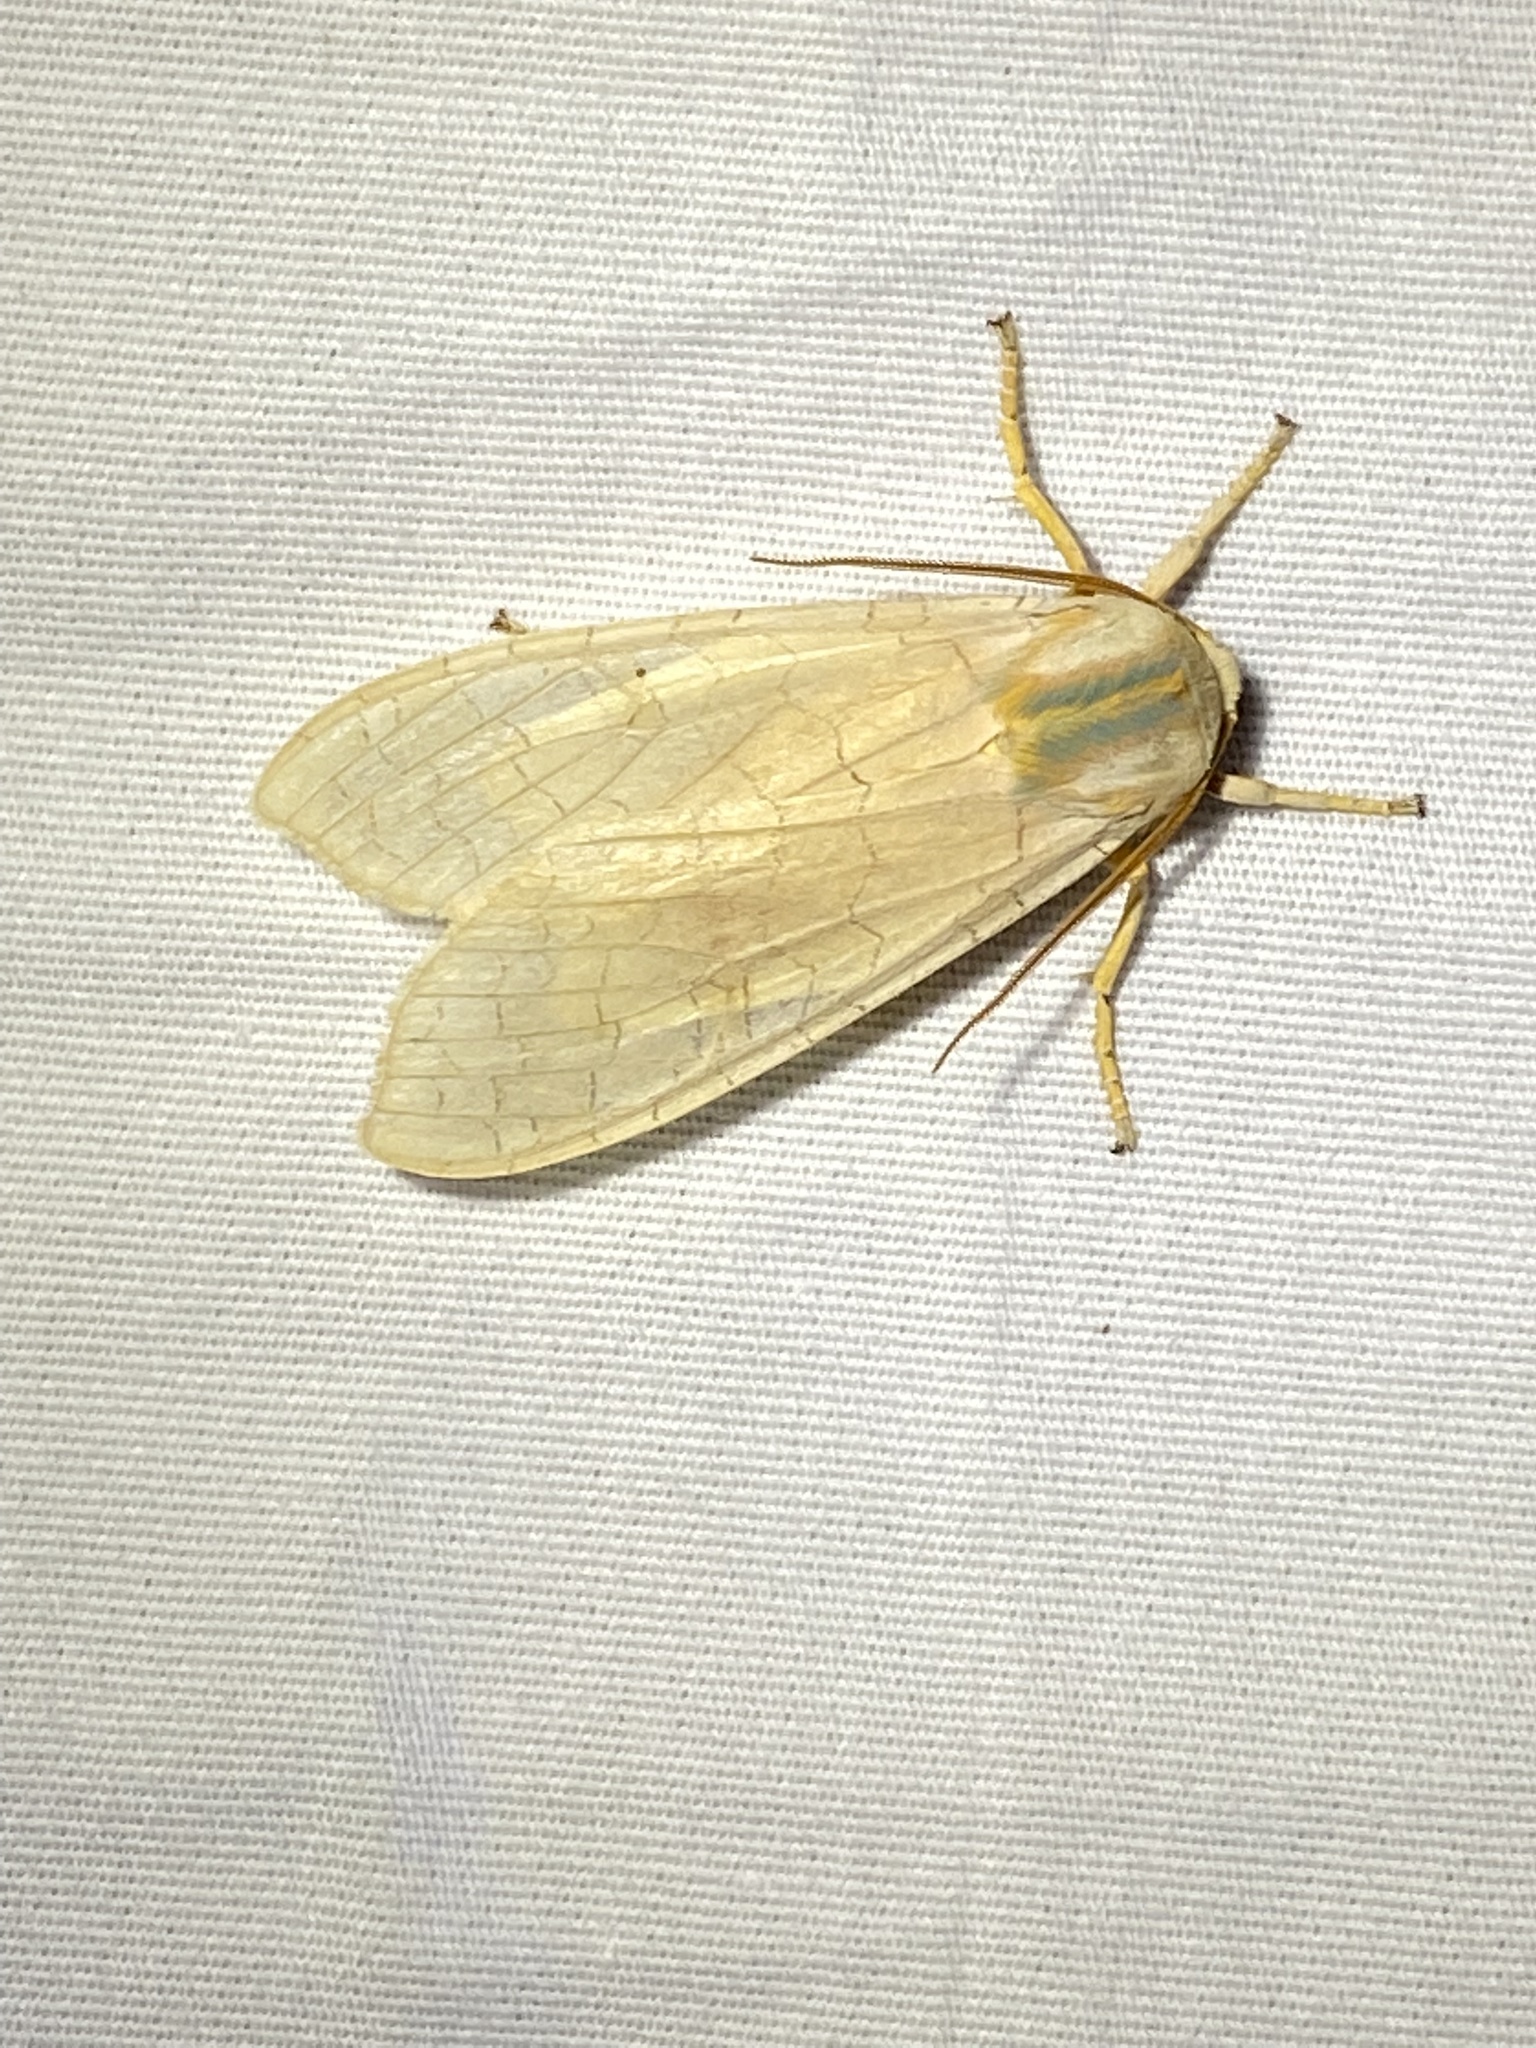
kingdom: Animalia
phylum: Arthropoda
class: Insecta
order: Lepidoptera
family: Erebidae
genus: Halysidota
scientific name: Halysidota
